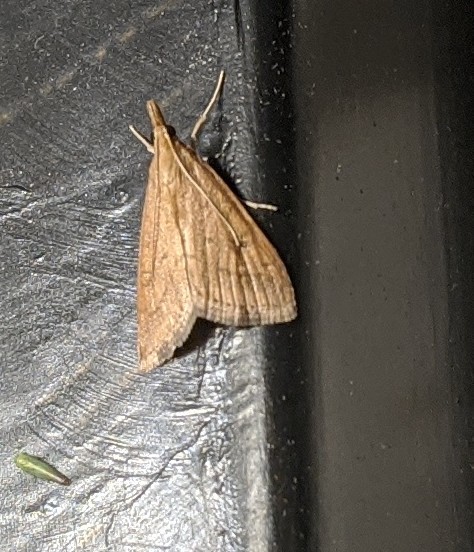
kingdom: Animalia
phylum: Arthropoda
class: Insecta
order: Lepidoptera
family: Crambidae
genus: Udea
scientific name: Udea rubigalis
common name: Celery leaftier moth
